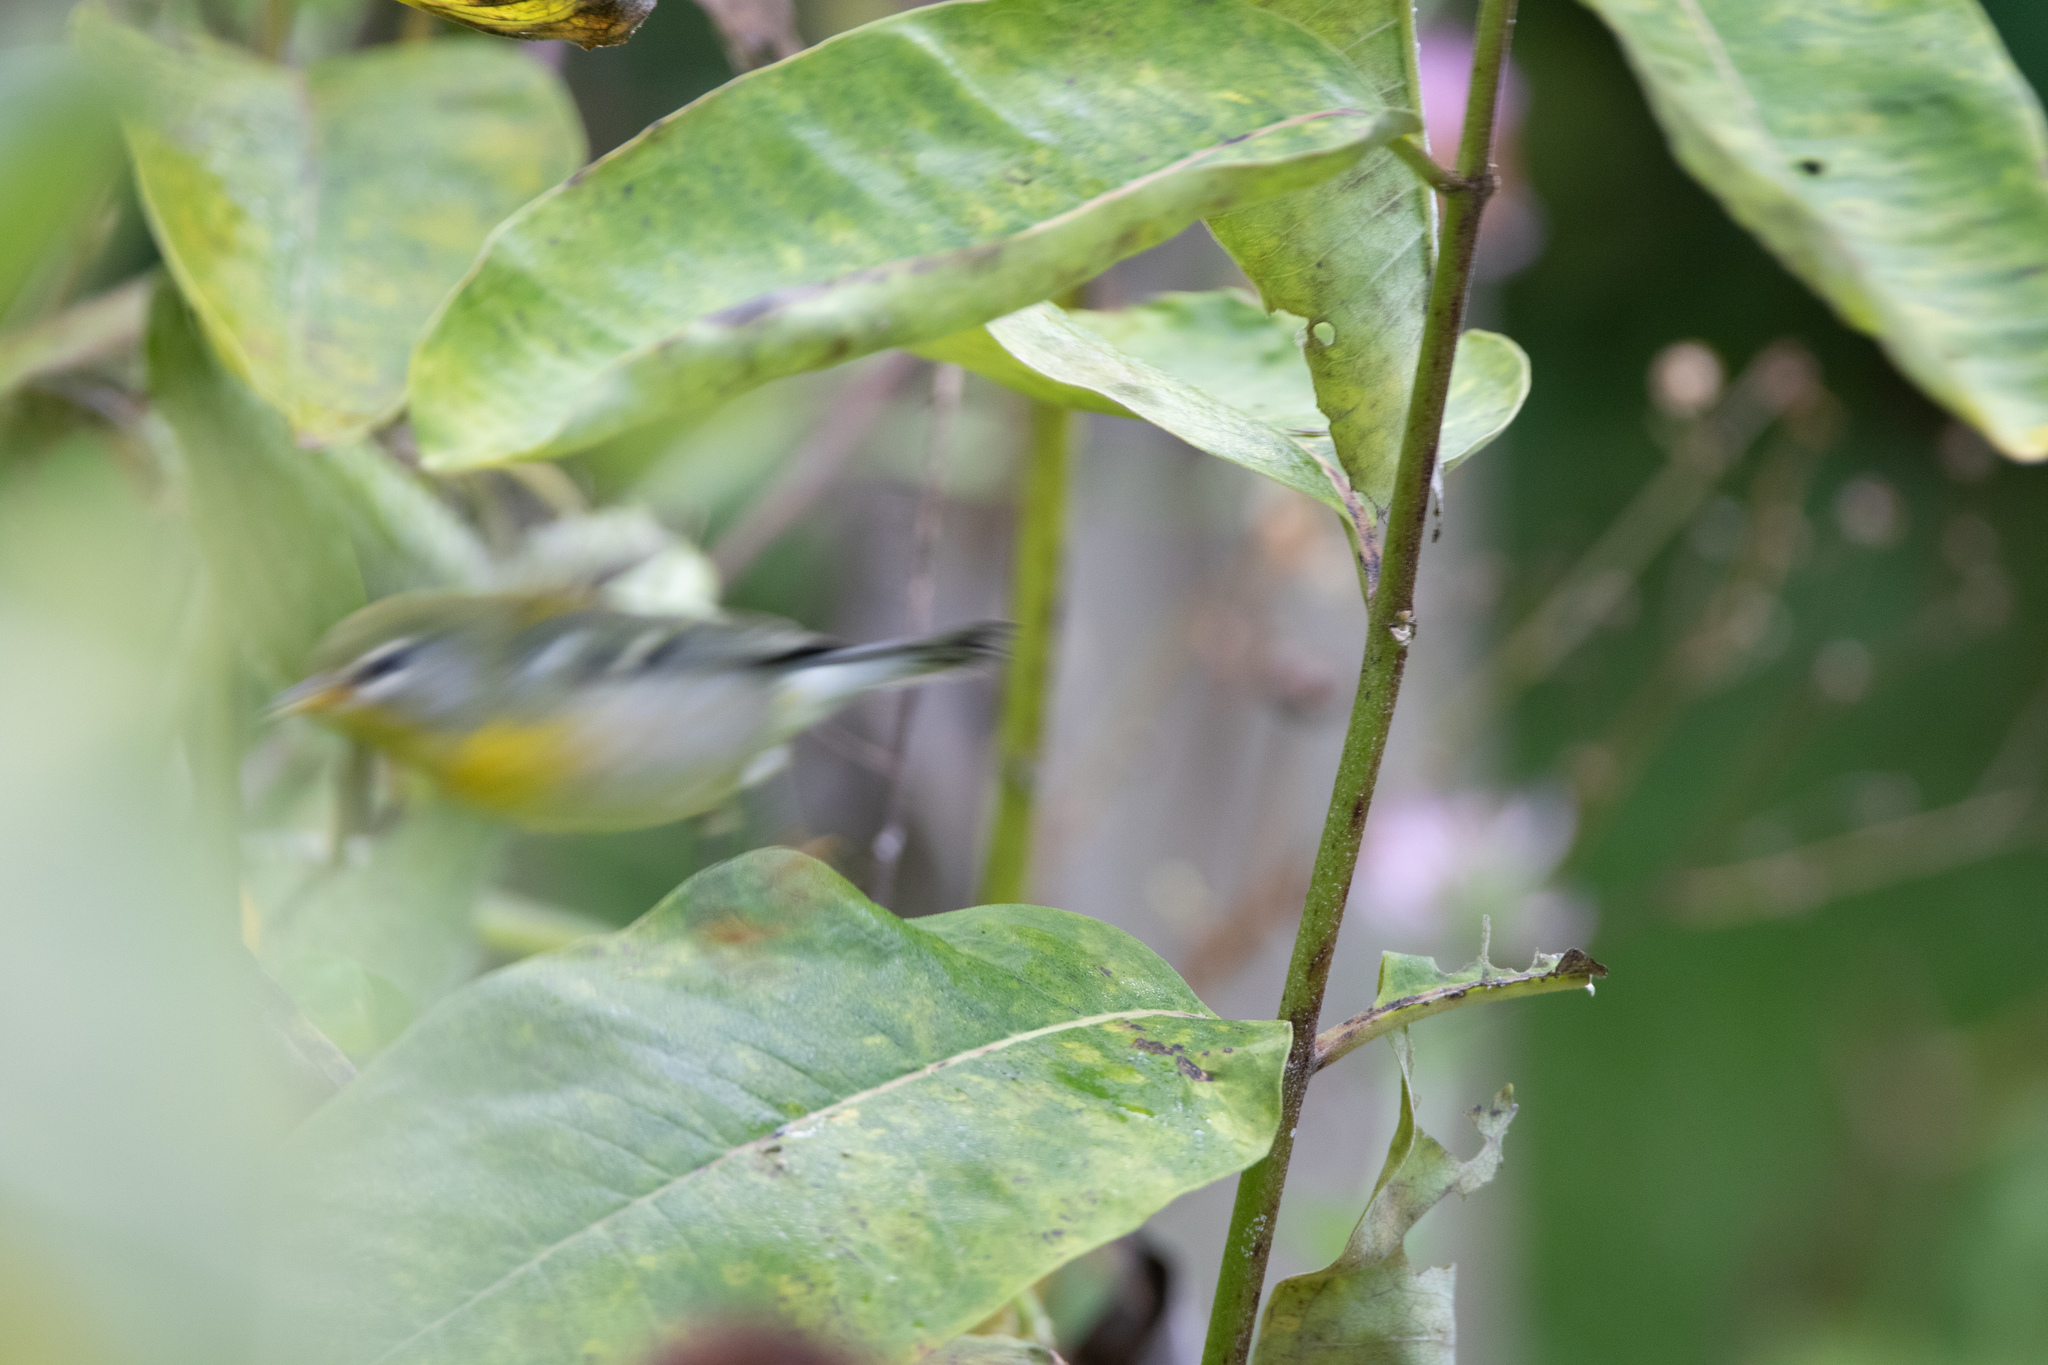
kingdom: Animalia
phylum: Chordata
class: Aves
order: Passeriformes
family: Parulidae
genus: Setophaga
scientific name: Setophaga americana
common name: Northern parula
